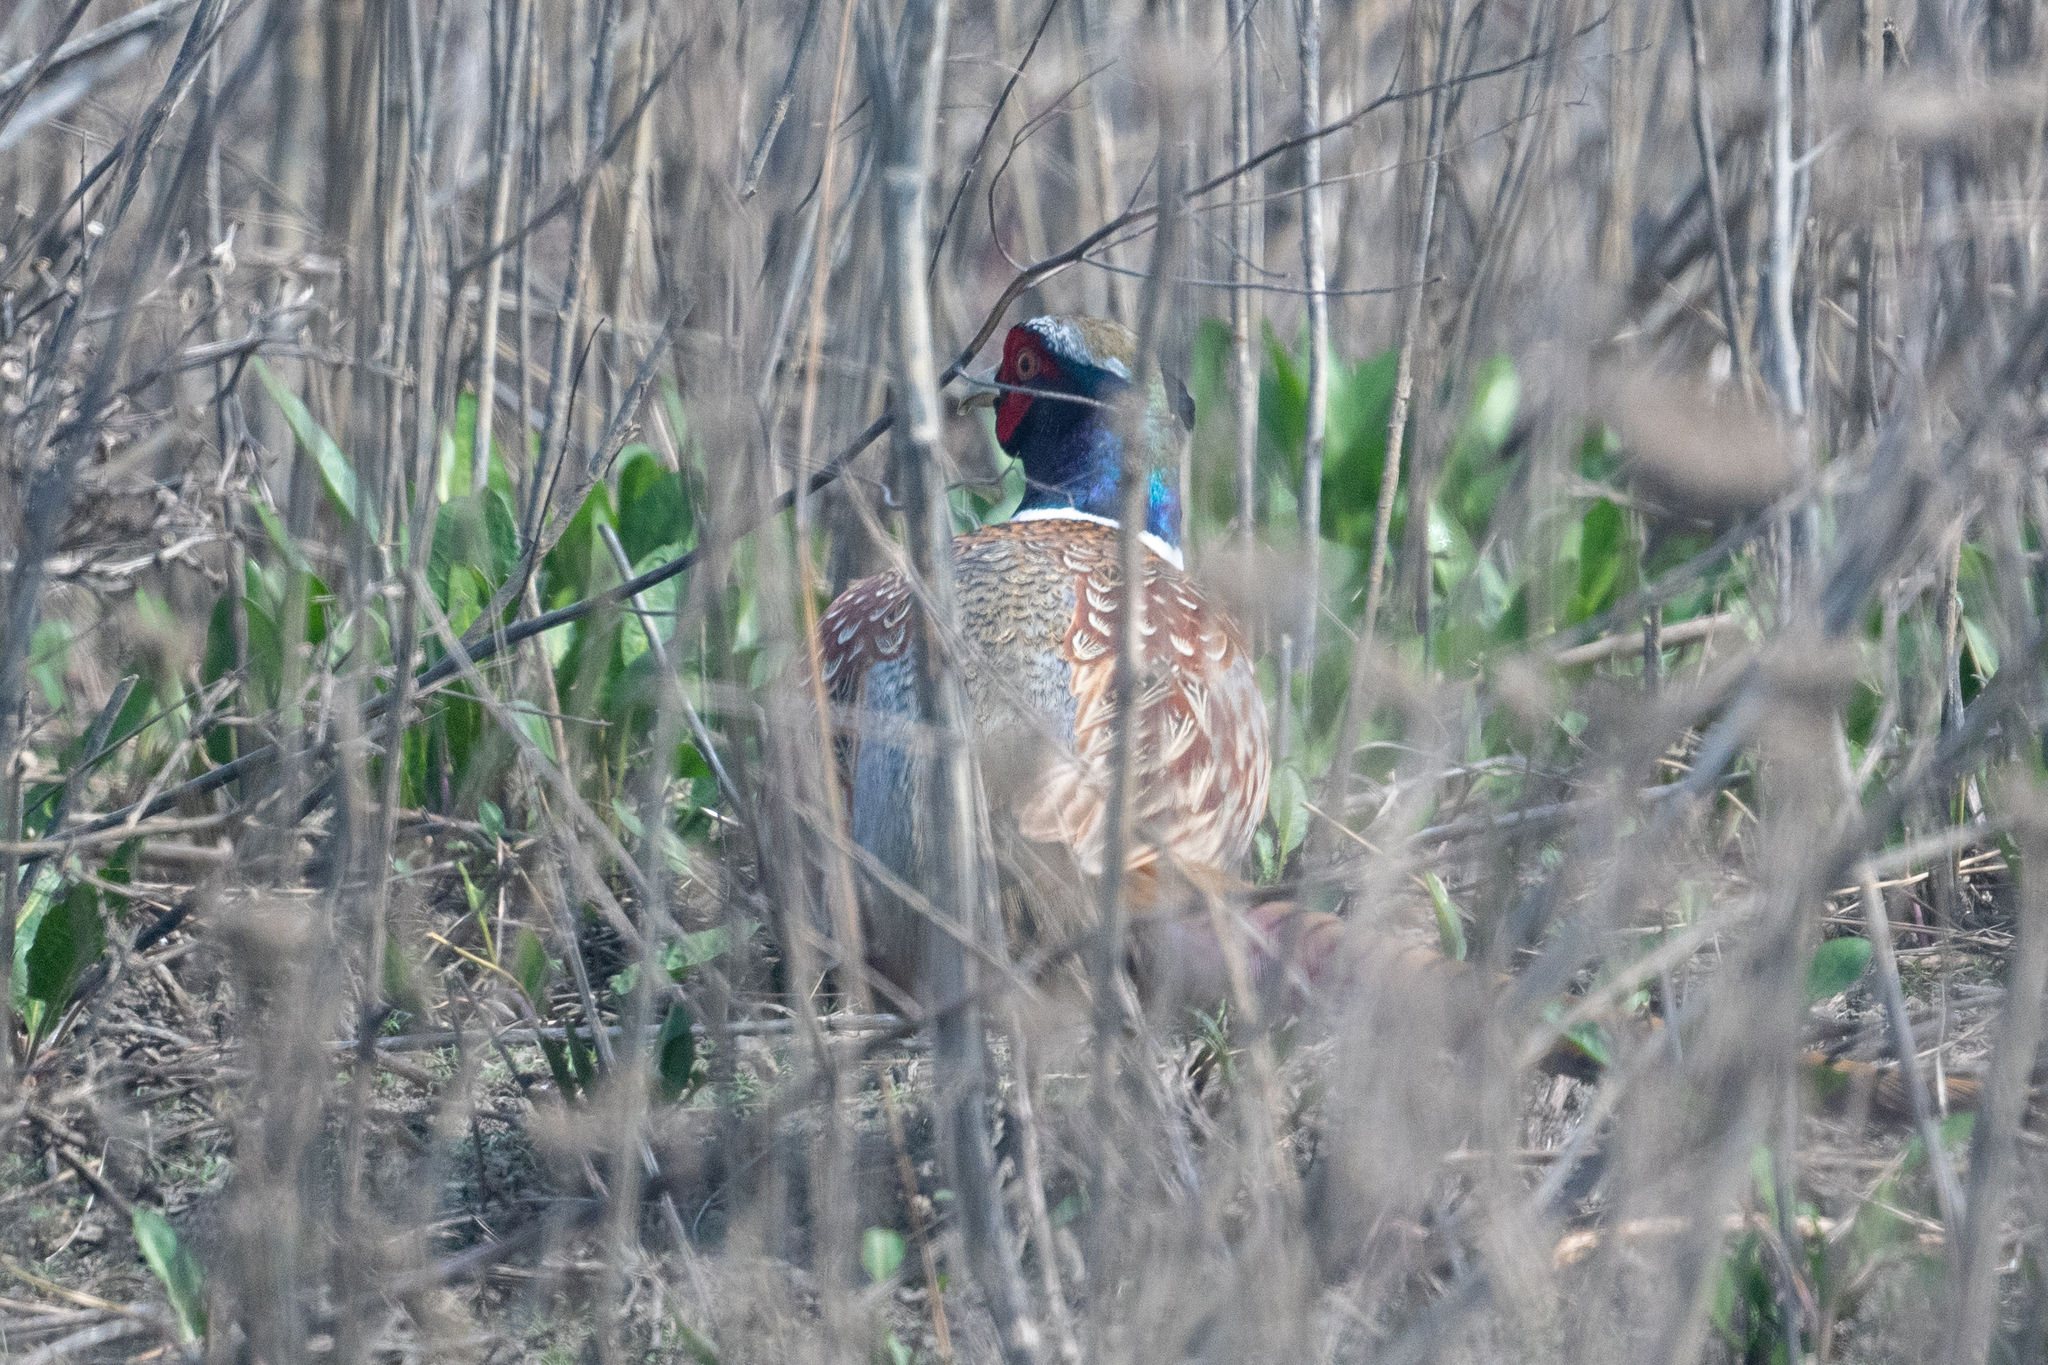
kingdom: Animalia
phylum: Chordata
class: Aves
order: Galliformes
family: Phasianidae
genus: Phasianus
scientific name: Phasianus colchicus
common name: Common pheasant
